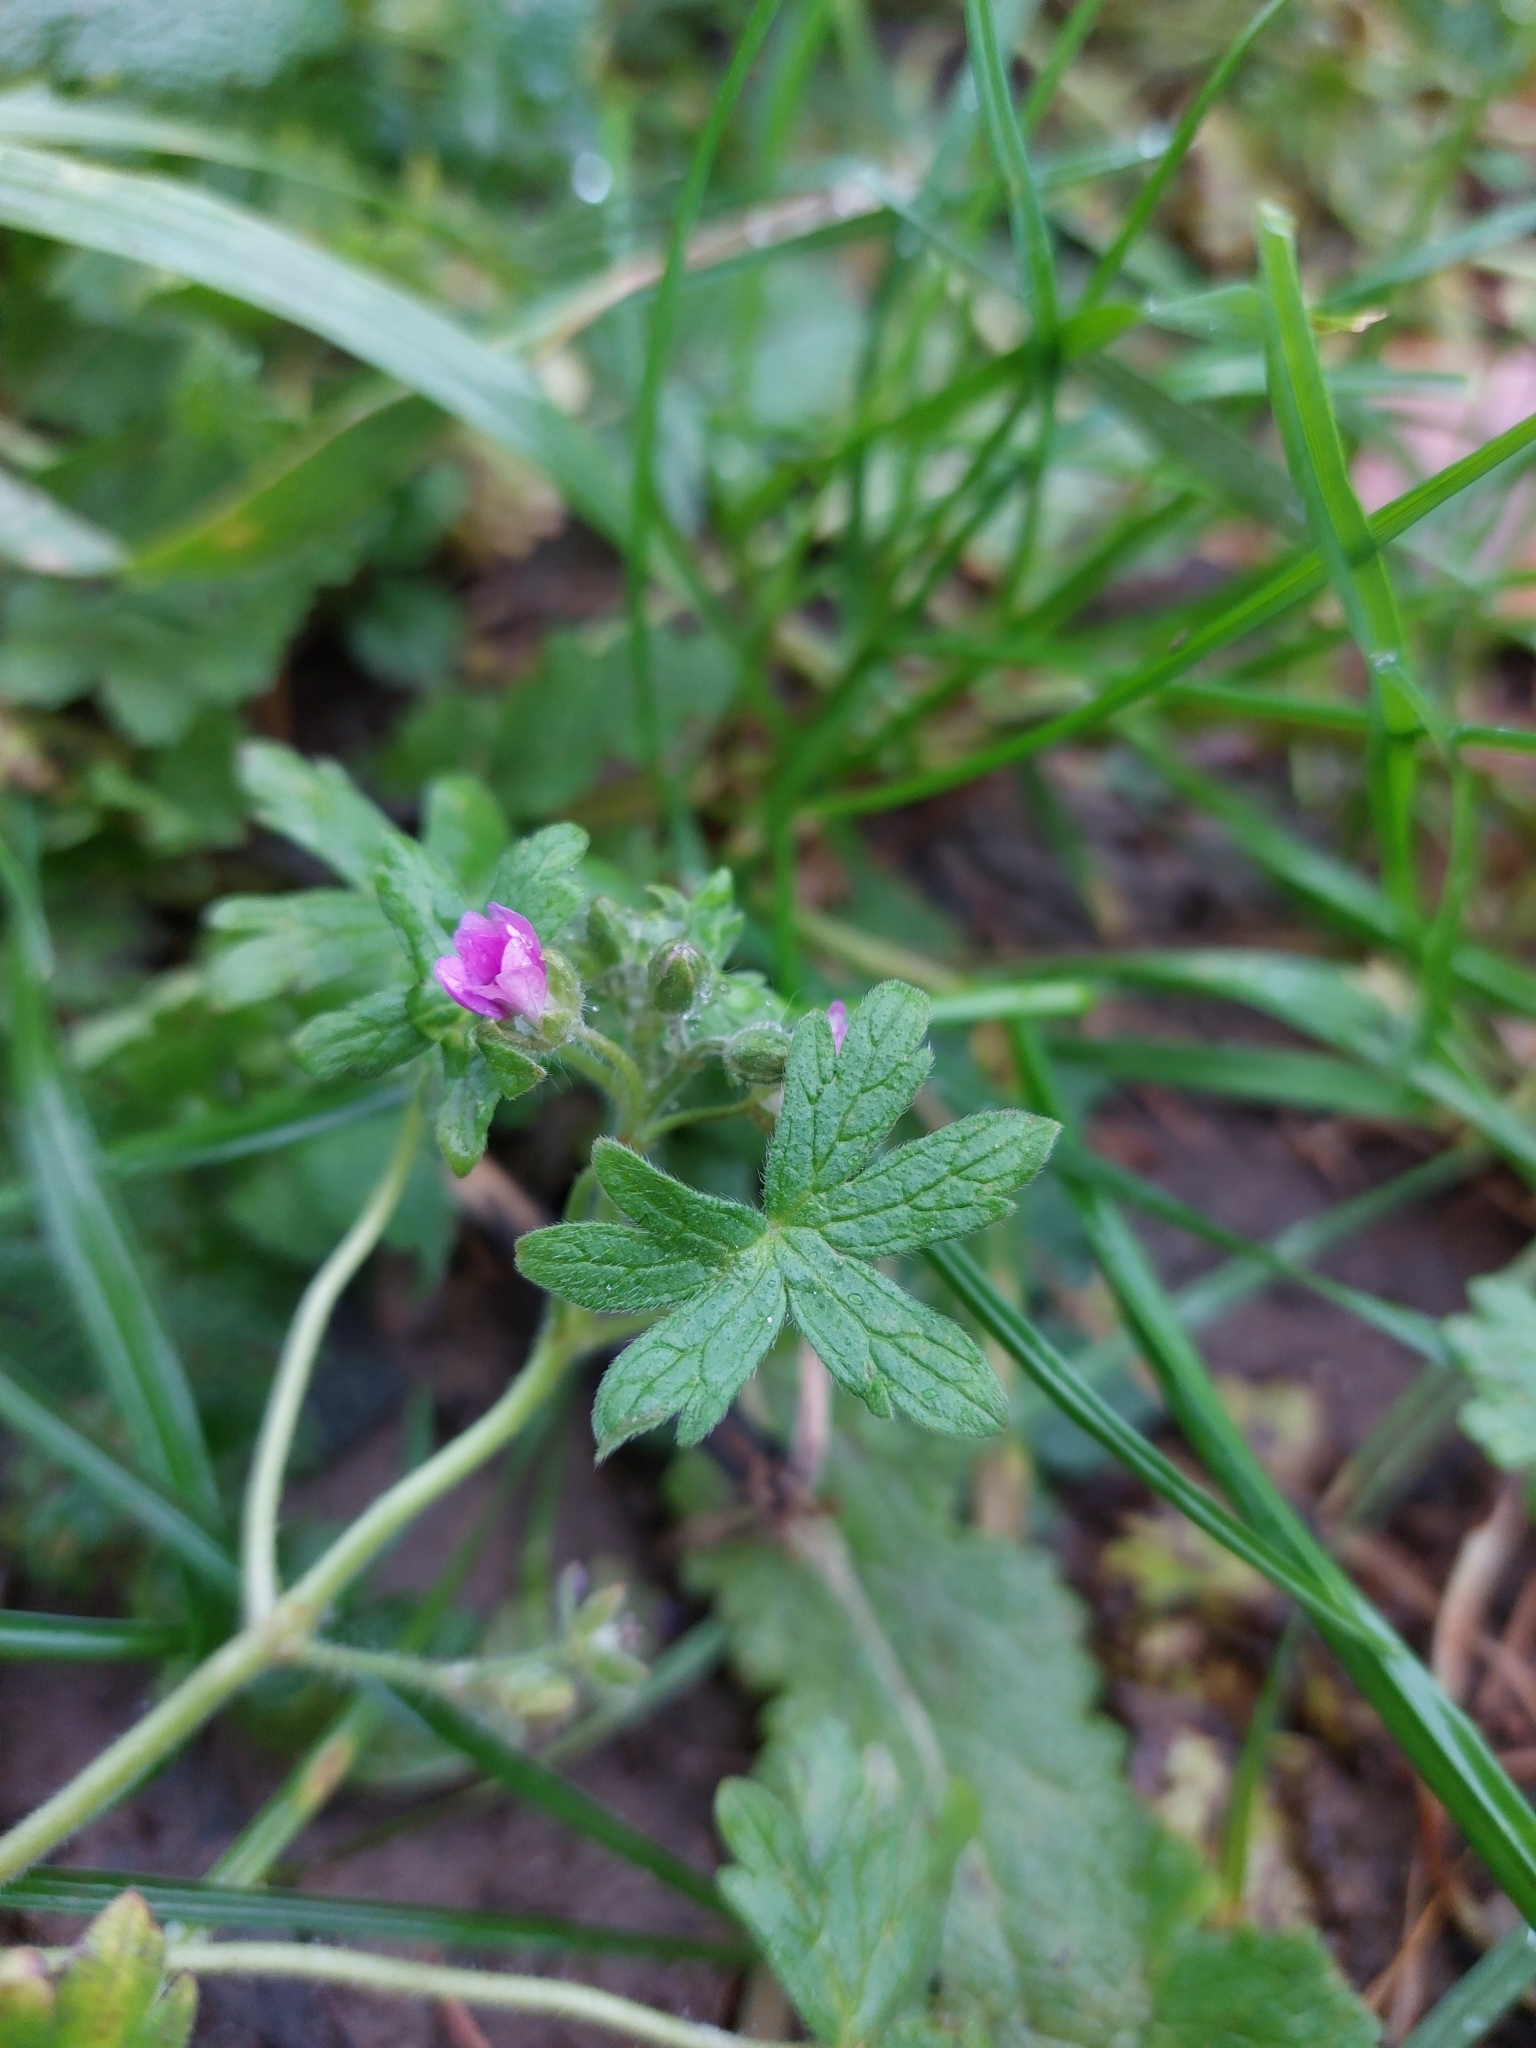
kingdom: Plantae
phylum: Tracheophyta
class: Magnoliopsida
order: Geraniales
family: Geraniaceae
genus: Geranium
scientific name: Geranium molle
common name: Dove's-foot crane's-bill
